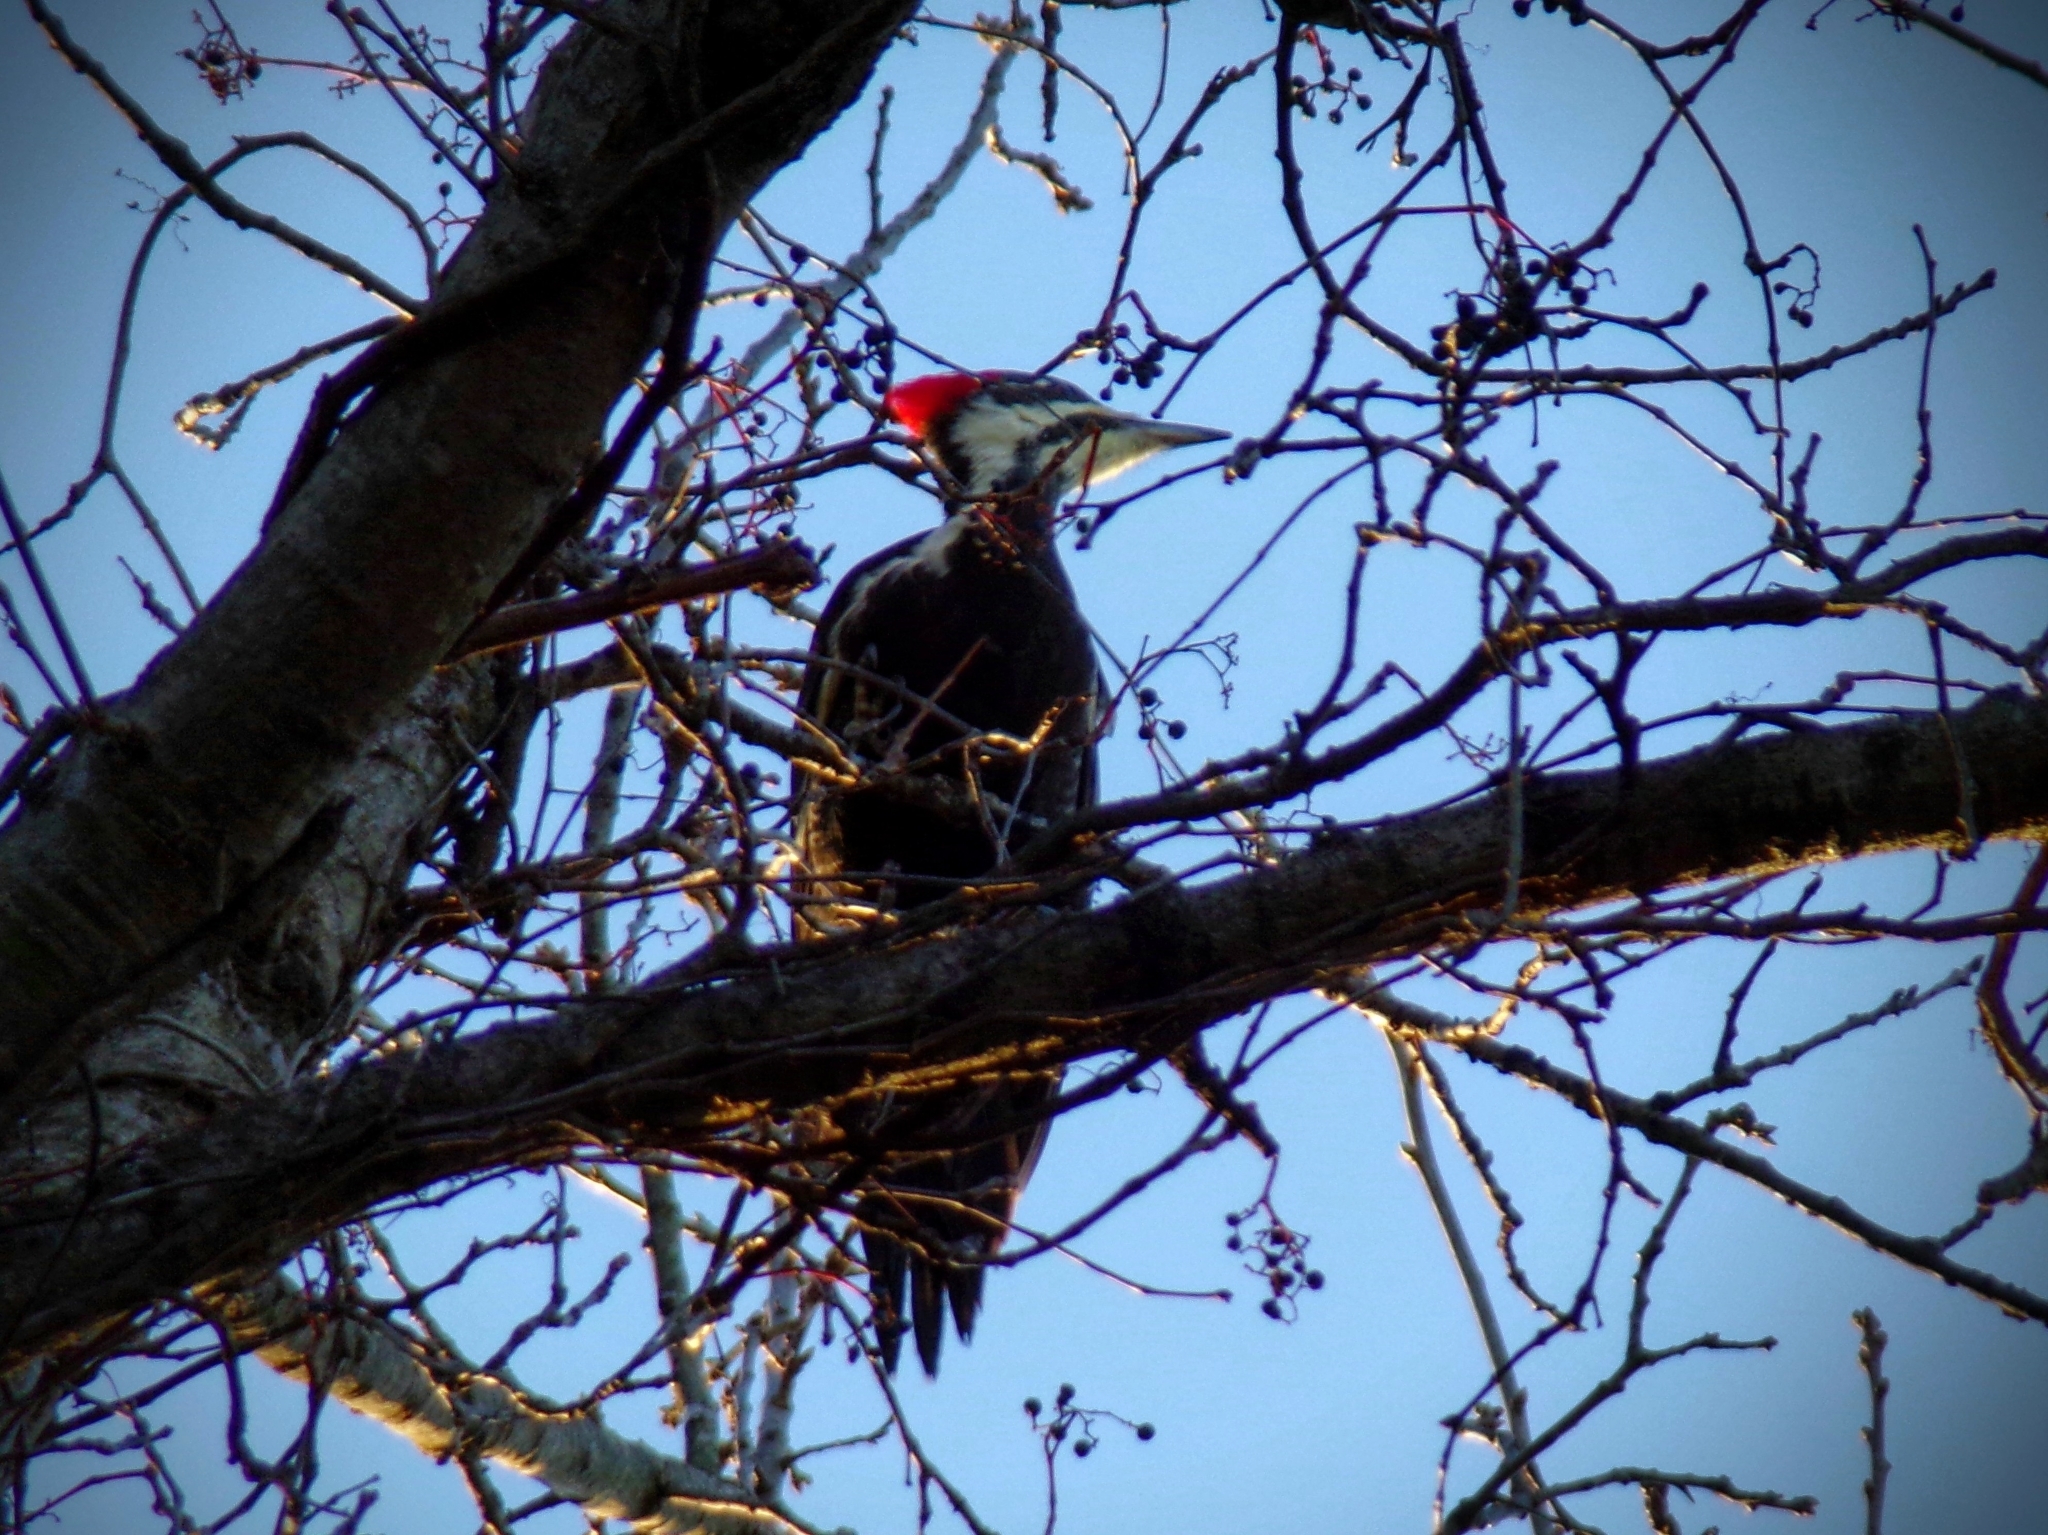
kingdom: Animalia
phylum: Chordata
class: Aves
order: Piciformes
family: Picidae
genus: Dryocopus
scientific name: Dryocopus pileatus
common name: Pileated woodpecker
